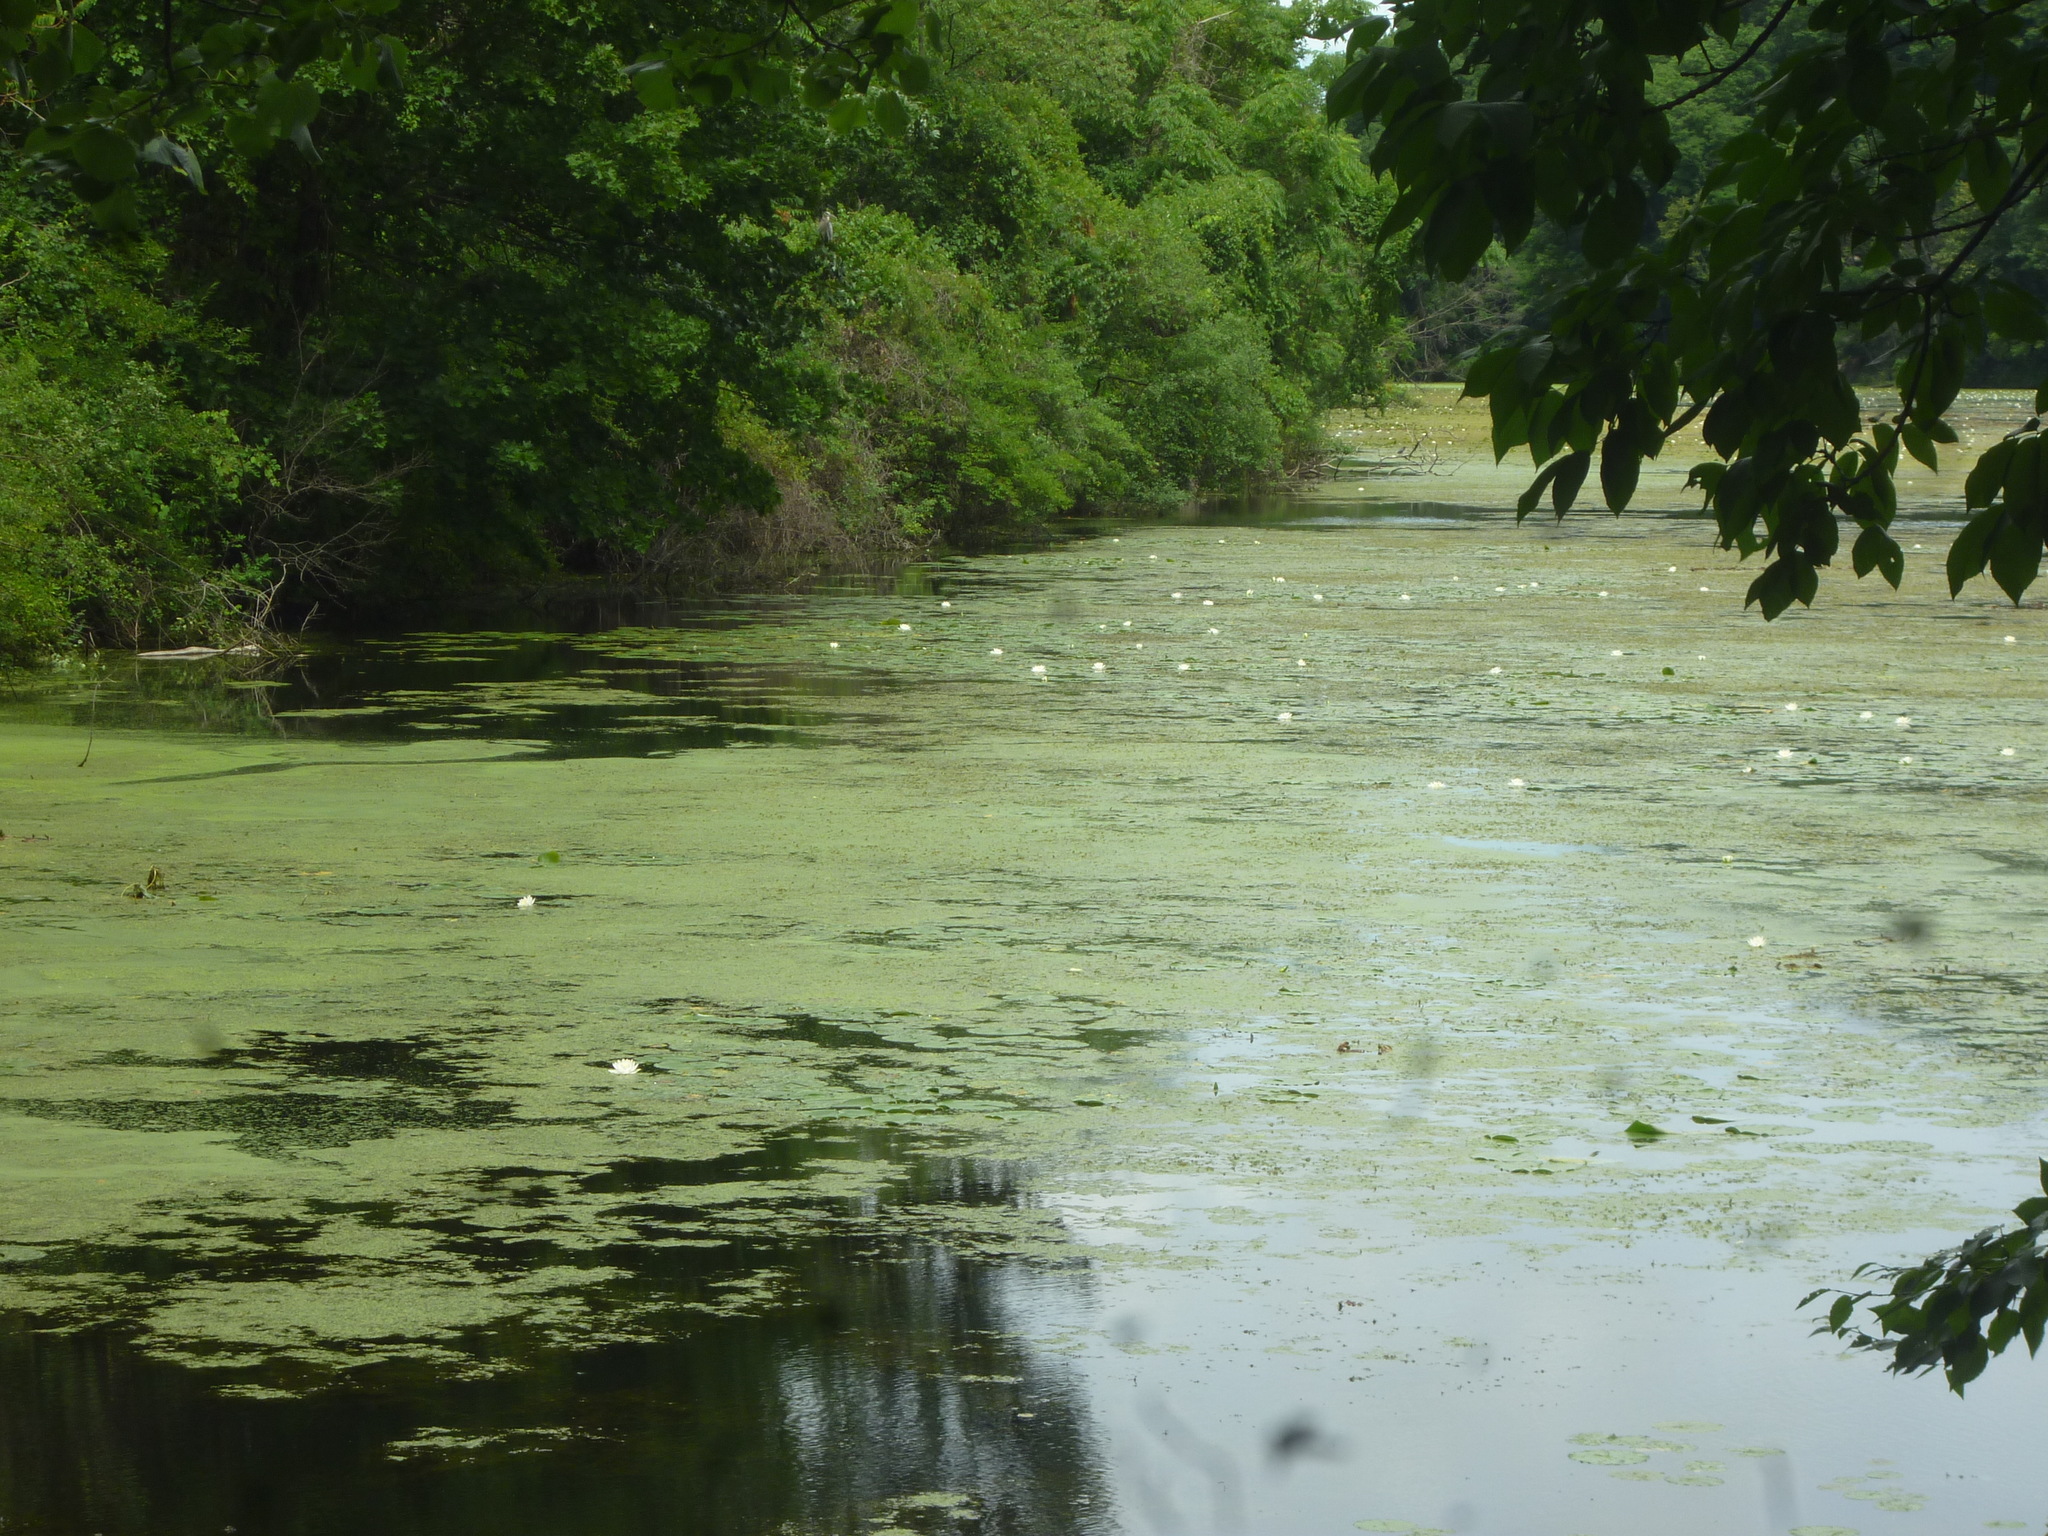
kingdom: Plantae
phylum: Tracheophyta
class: Magnoliopsida
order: Nymphaeales
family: Nymphaeaceae
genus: Nymphaea
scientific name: Nymphaea odorata
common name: Fragrant water-lily
